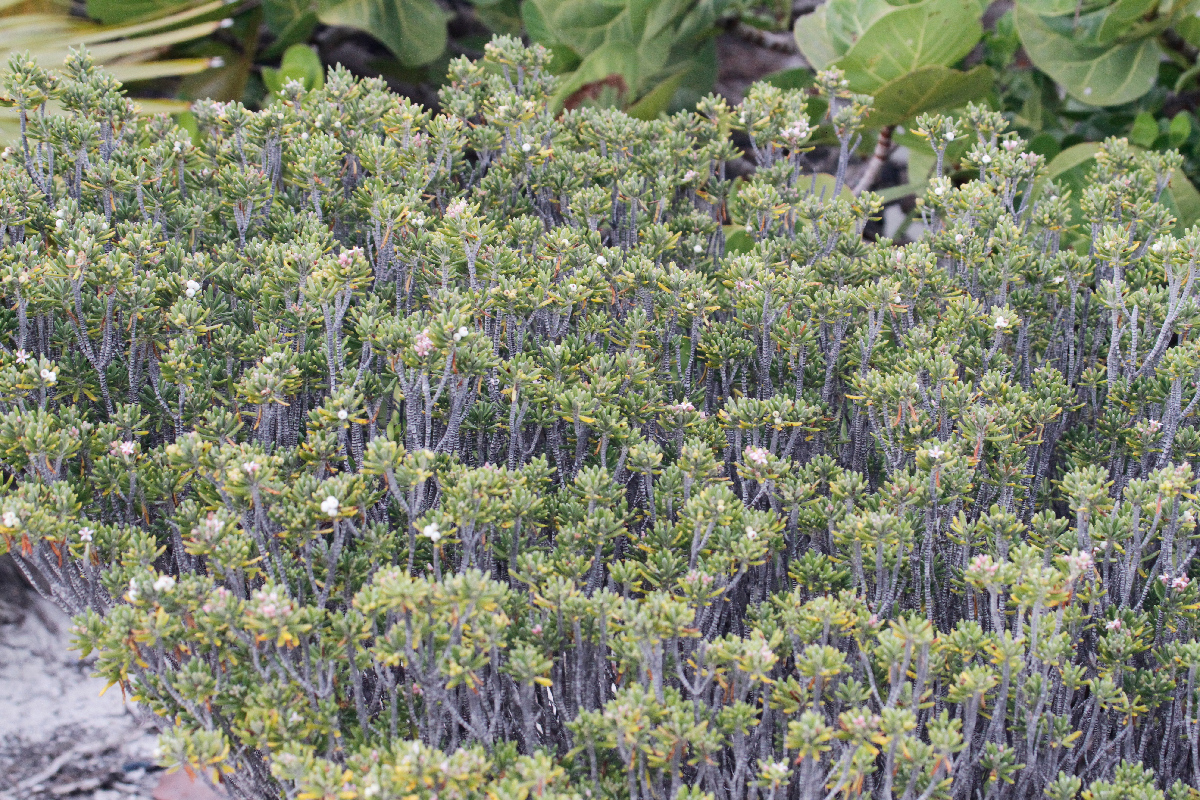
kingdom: Plantae
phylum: Tracheophyta
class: Magnoliopsida
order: Gentianales
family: Rubiaceae
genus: Strumpfia
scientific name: Strumpfia maritima
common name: Pride-of-big pine
